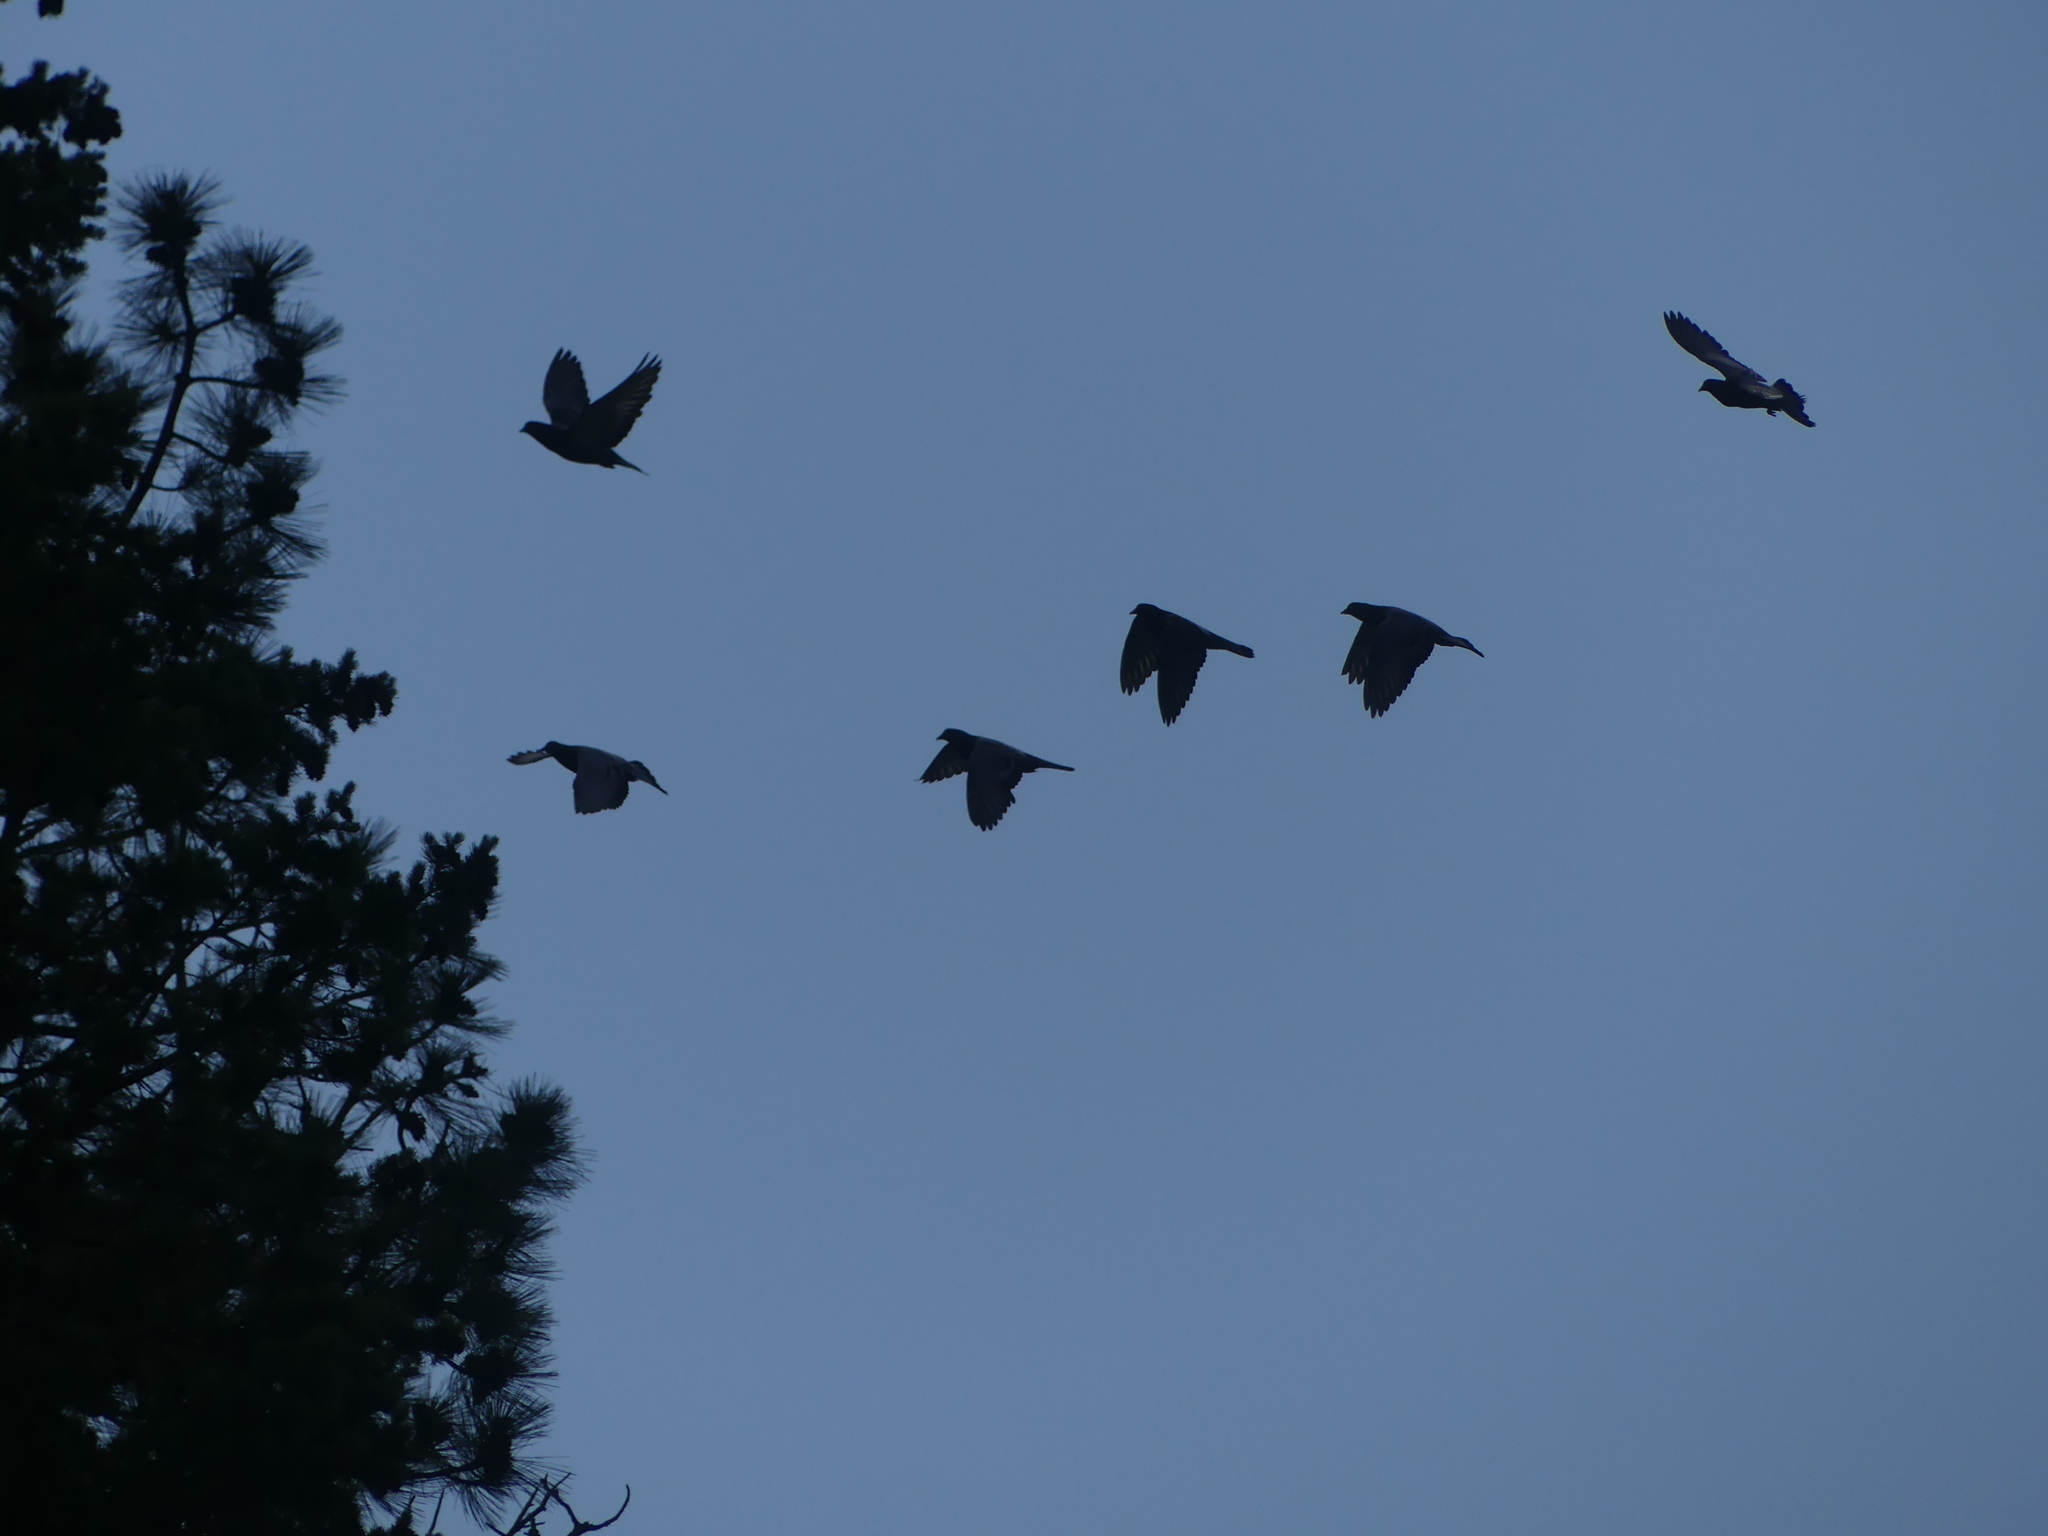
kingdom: Animalia
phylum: Chordata
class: Aves
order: Columbiformes
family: Columbidae
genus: Columba
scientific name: Columba livia
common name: Rock pigeon
